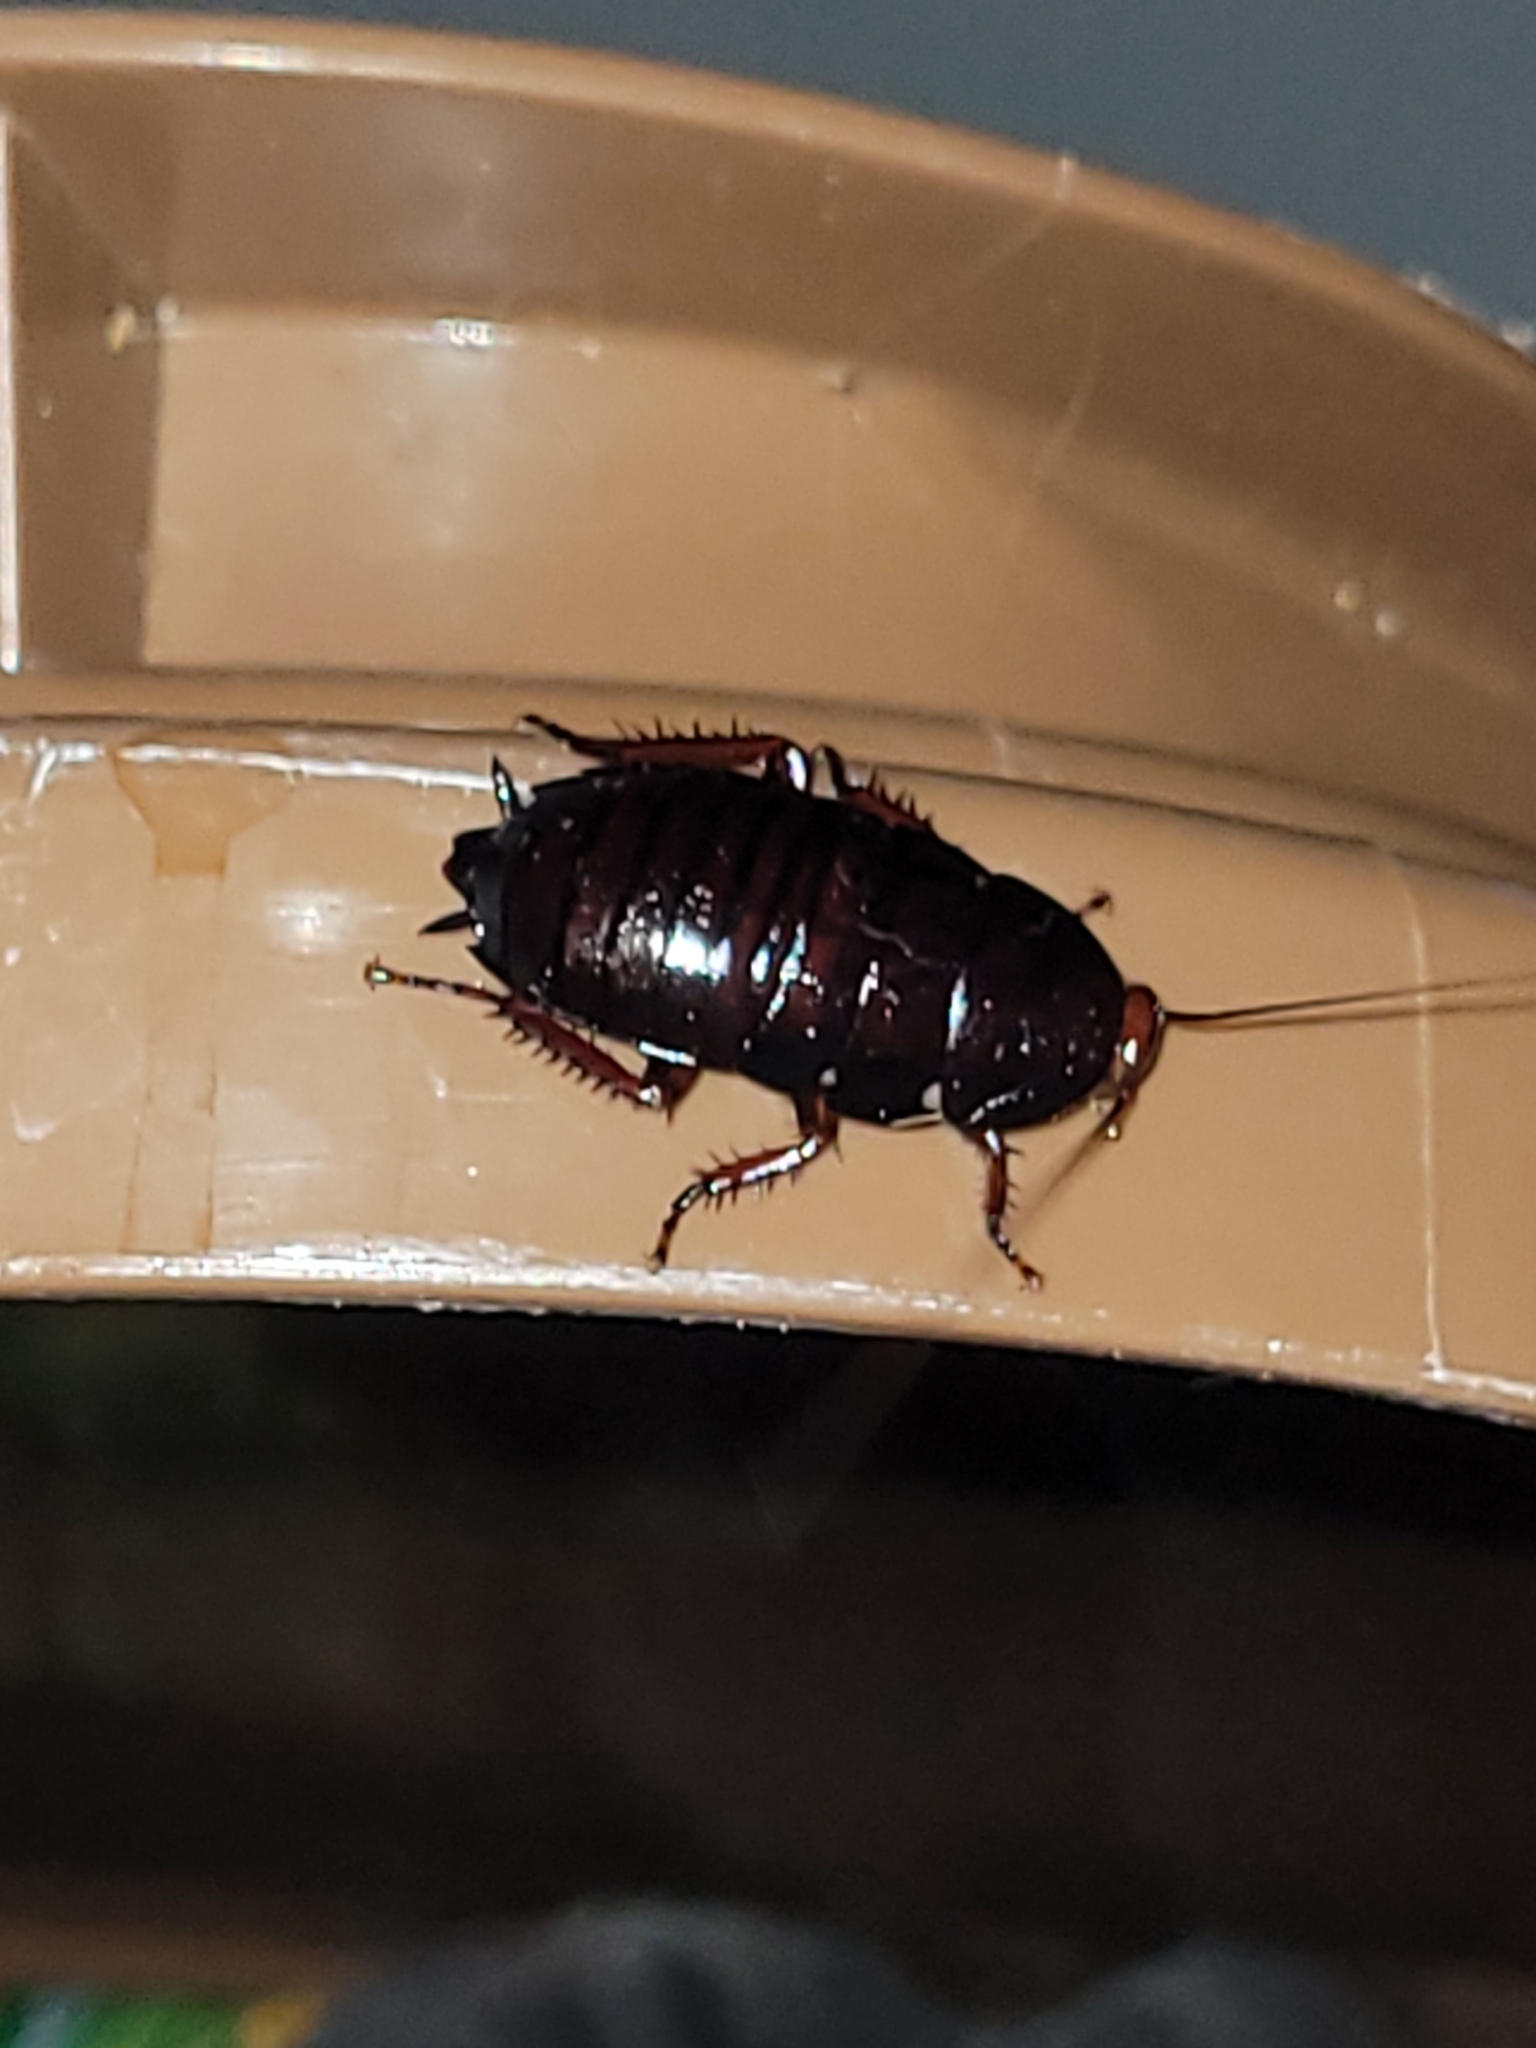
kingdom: Animalia
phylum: Arthropoda
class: Insecta
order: Blattodea
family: Blattidae
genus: Eurycotis
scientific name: Eurycotis floridana
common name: Florida cockroach
